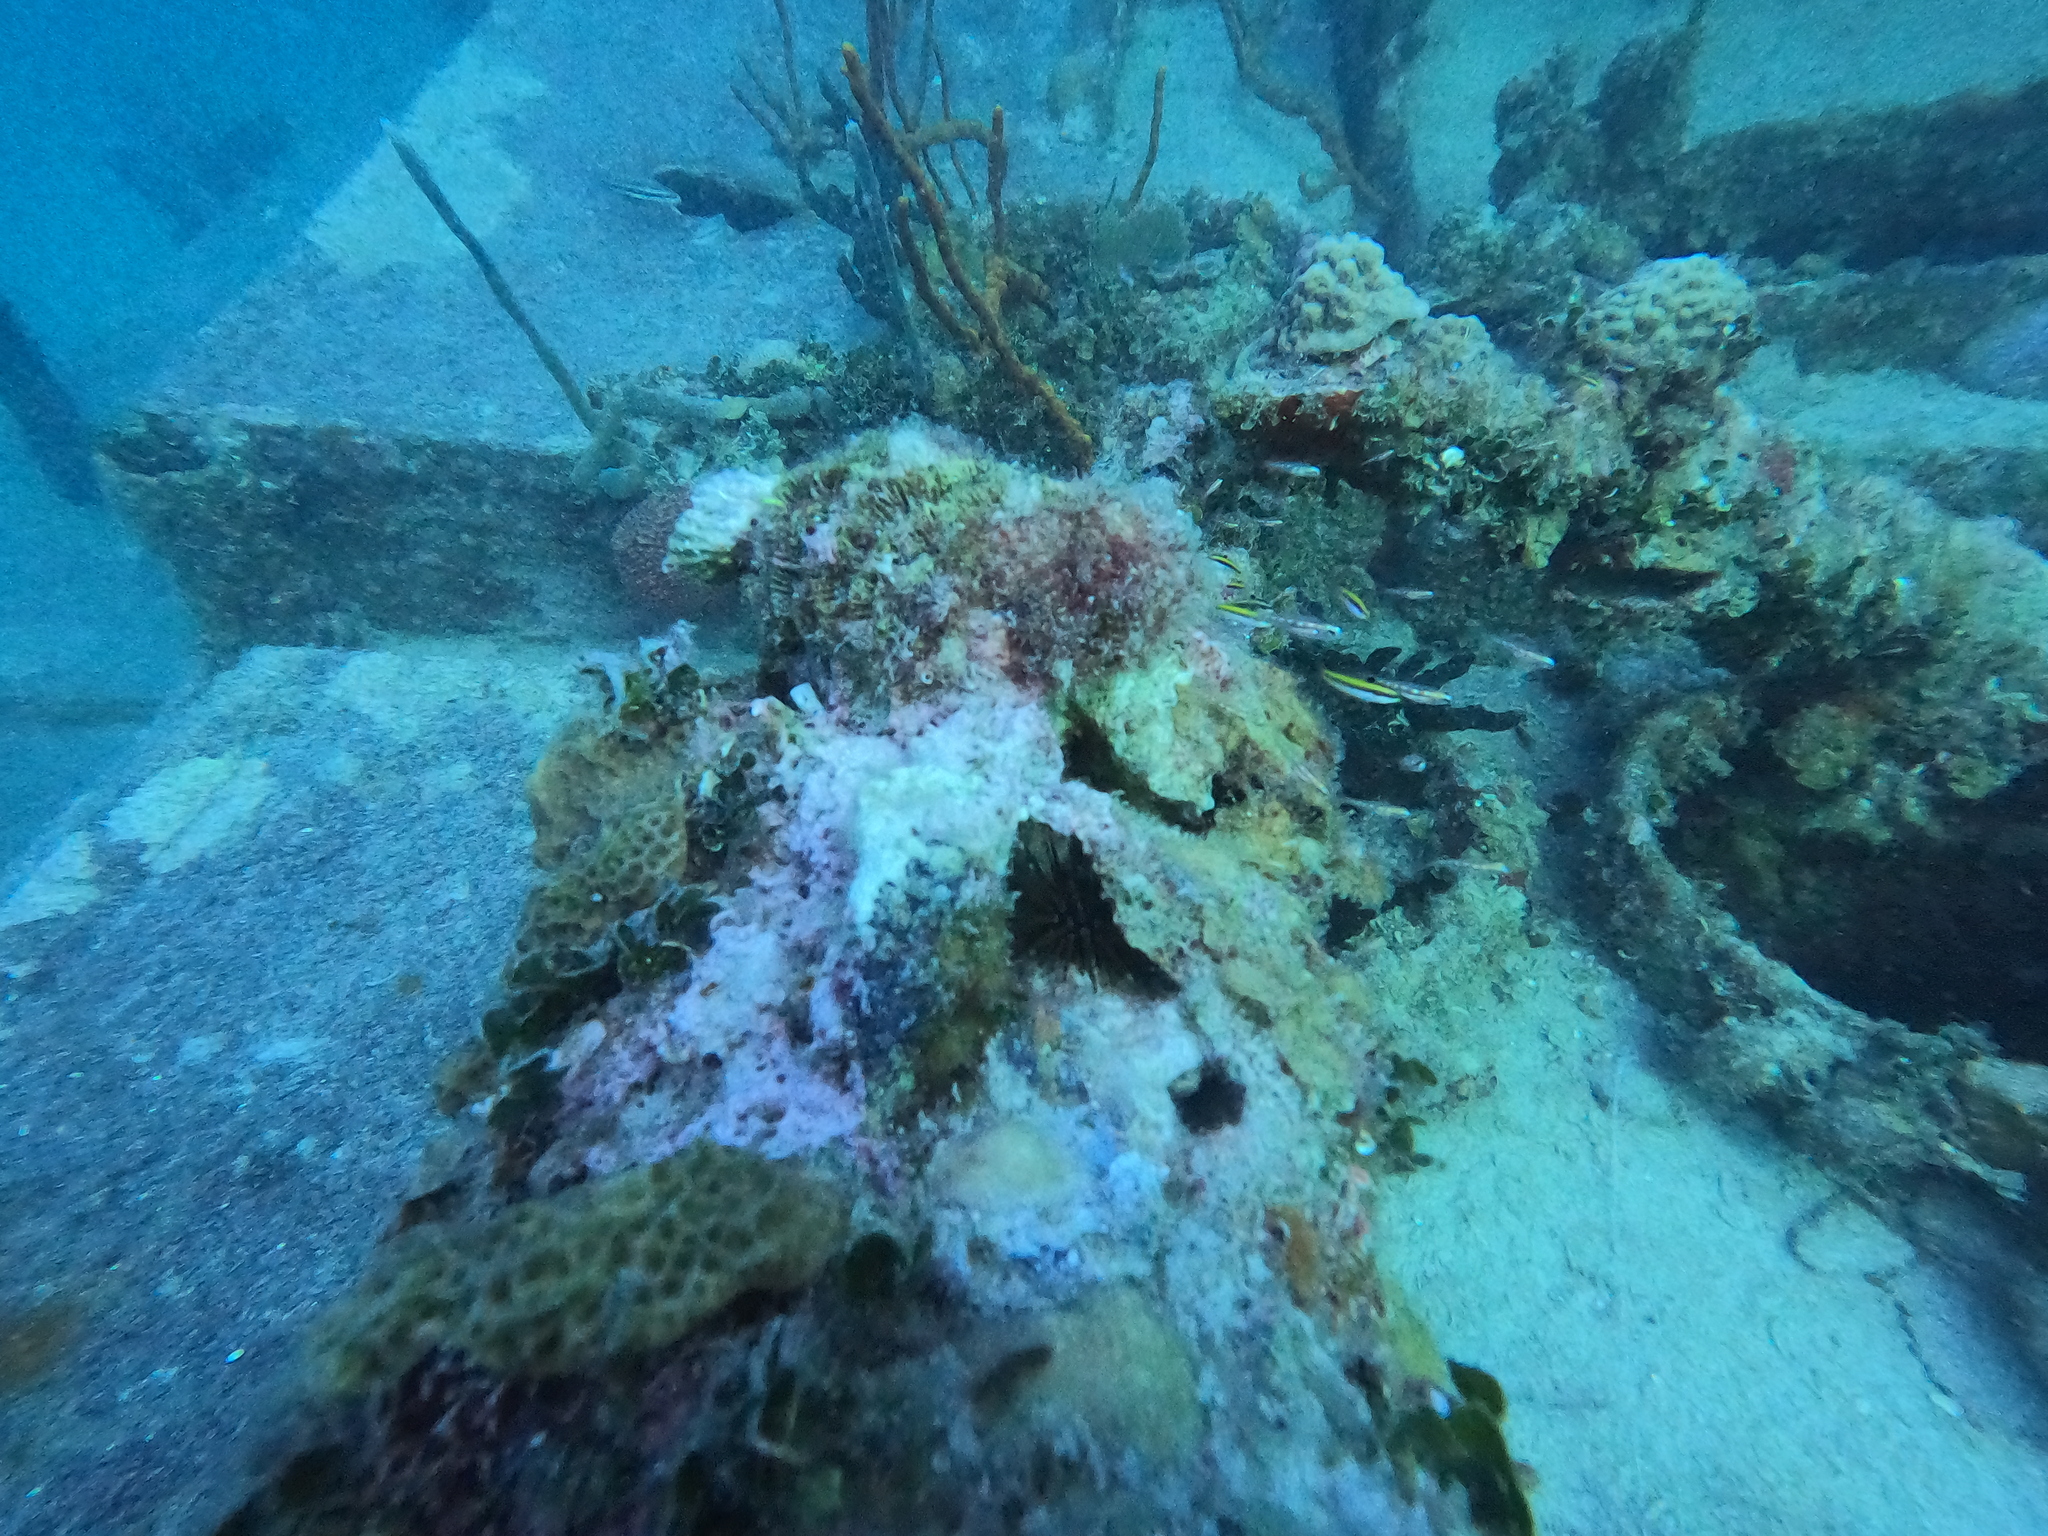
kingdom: Animalia
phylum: Chordata
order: Perciformes
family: Labridae
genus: Thalassoma
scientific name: Thalassoma bifasciatum
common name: Bluehead wrasse
